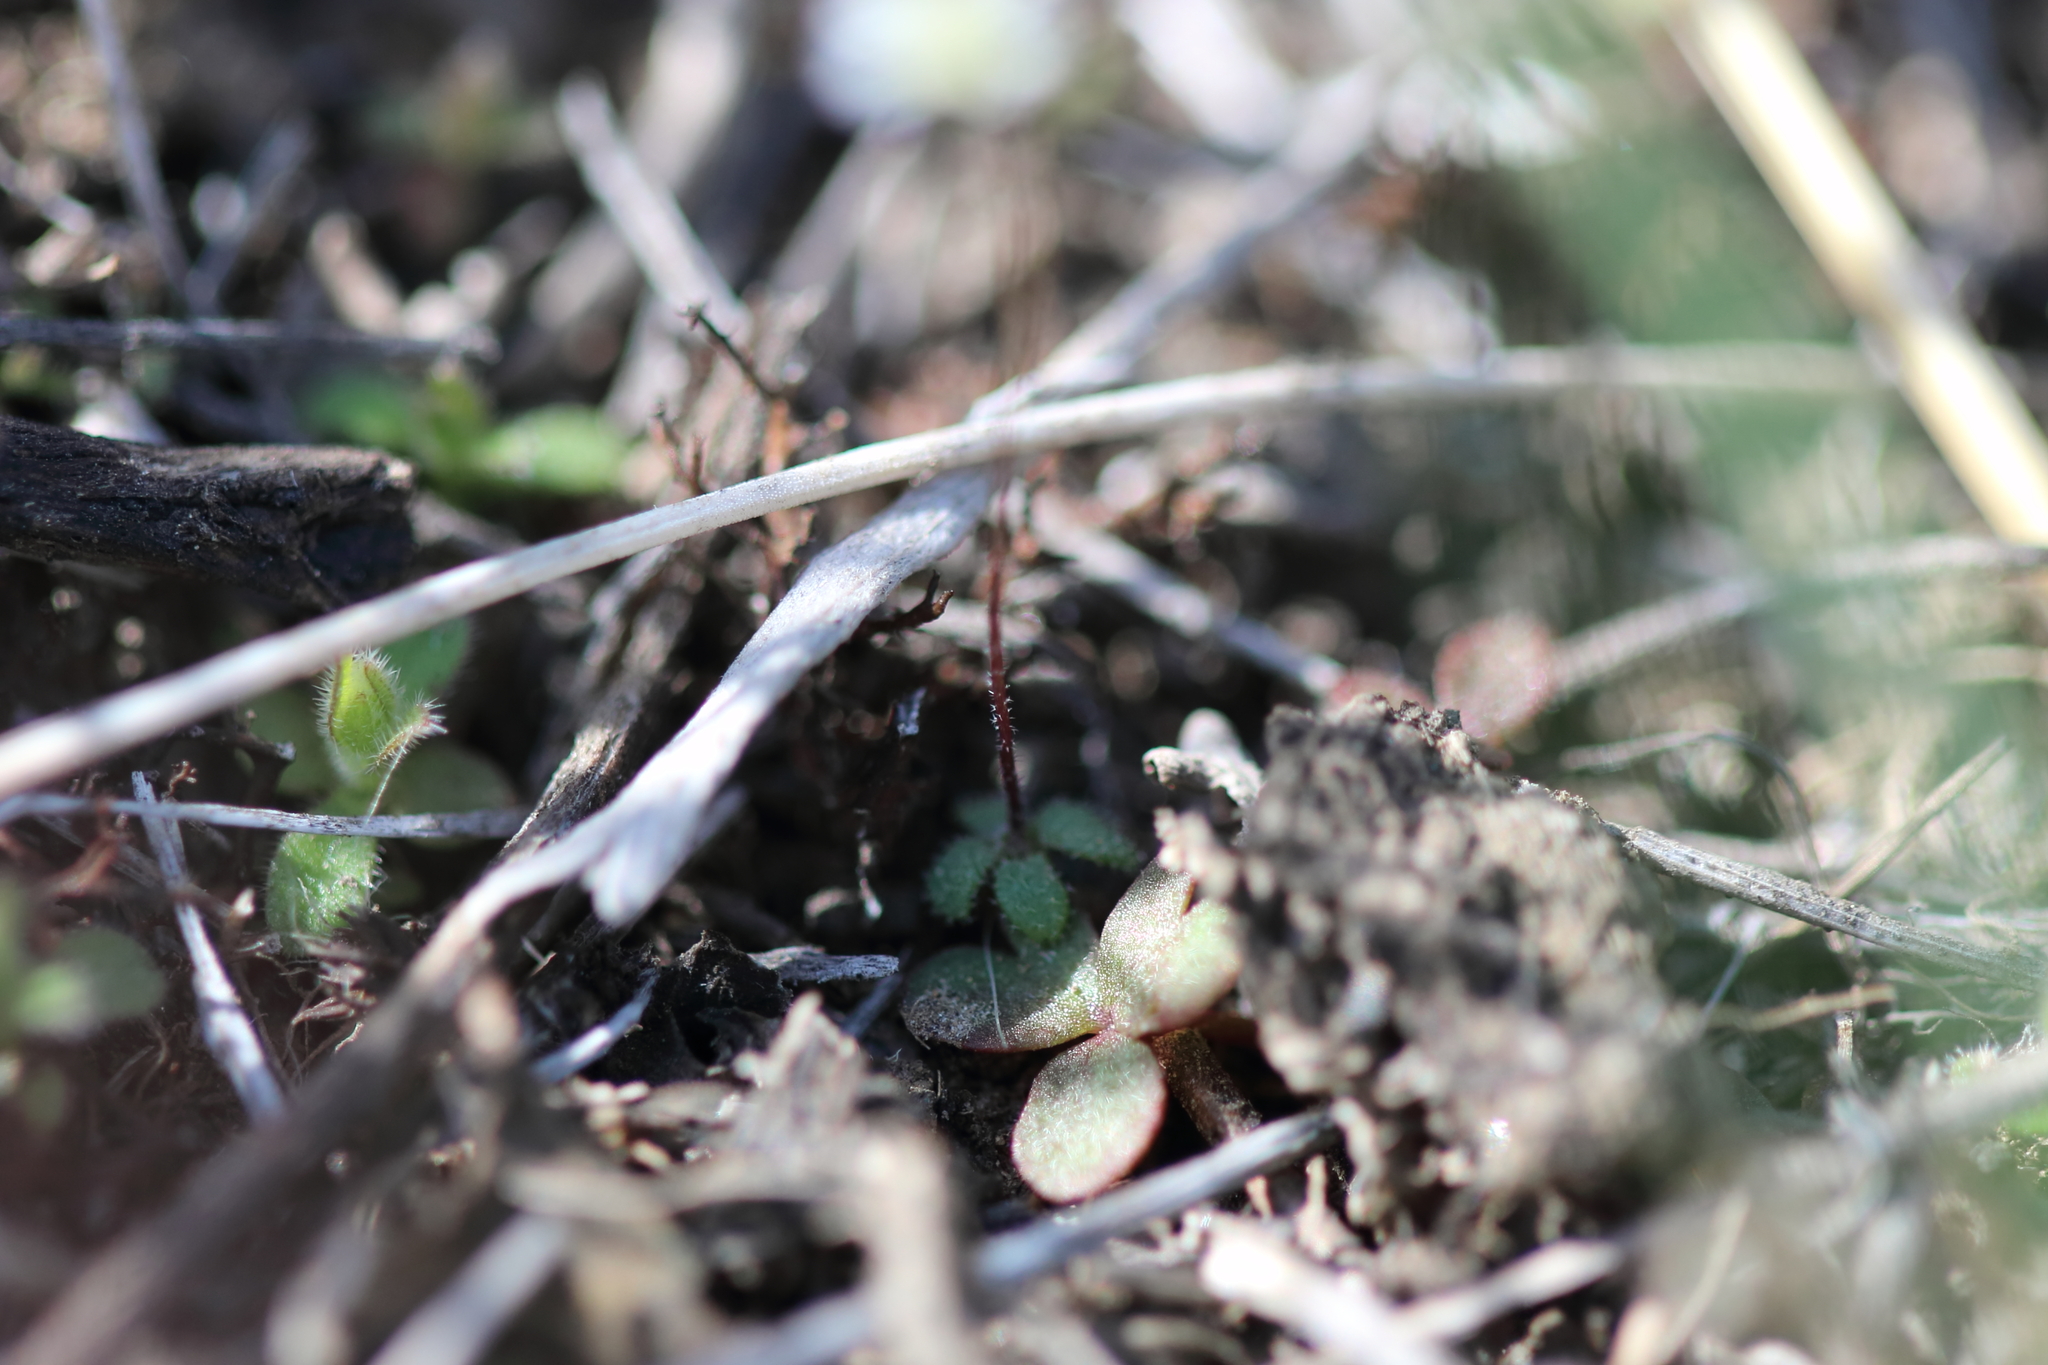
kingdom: Plantae
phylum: Tracheophyta
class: Magnoliopsida
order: Brassicales
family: Brassicaceae
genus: Draba
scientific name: Draba verna
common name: Spring draba
